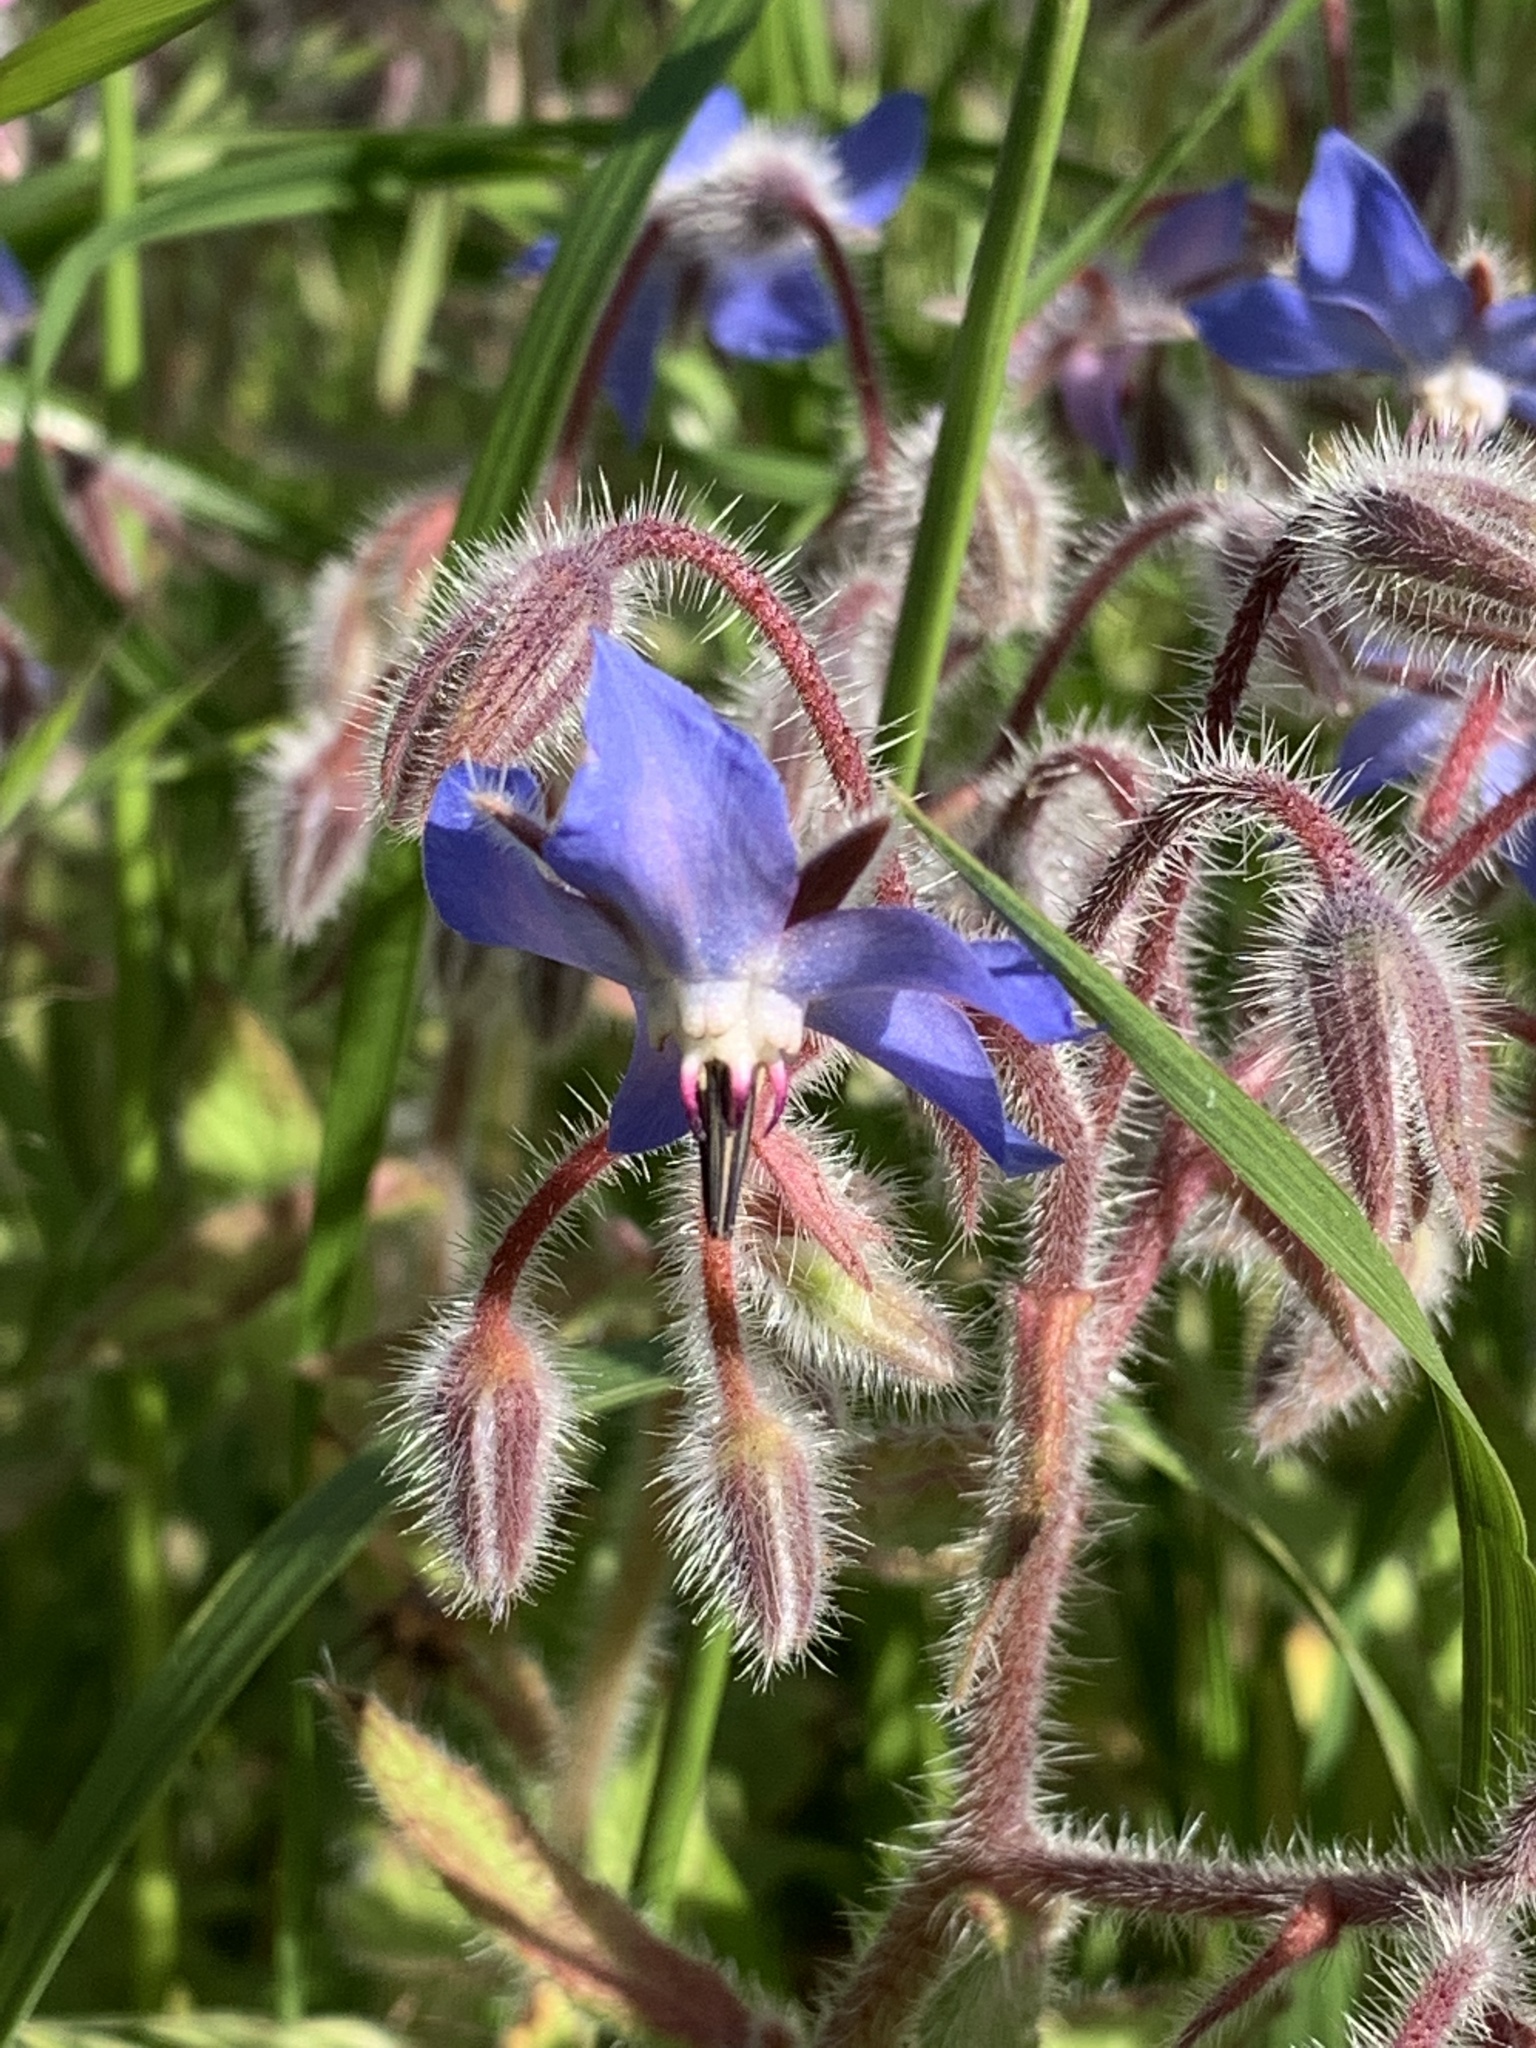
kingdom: Plantae
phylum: Tracheophyta
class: Magnoliopsida
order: Boraginales
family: Boraginaceae
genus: Borago
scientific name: Borago officinalis
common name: Borage
